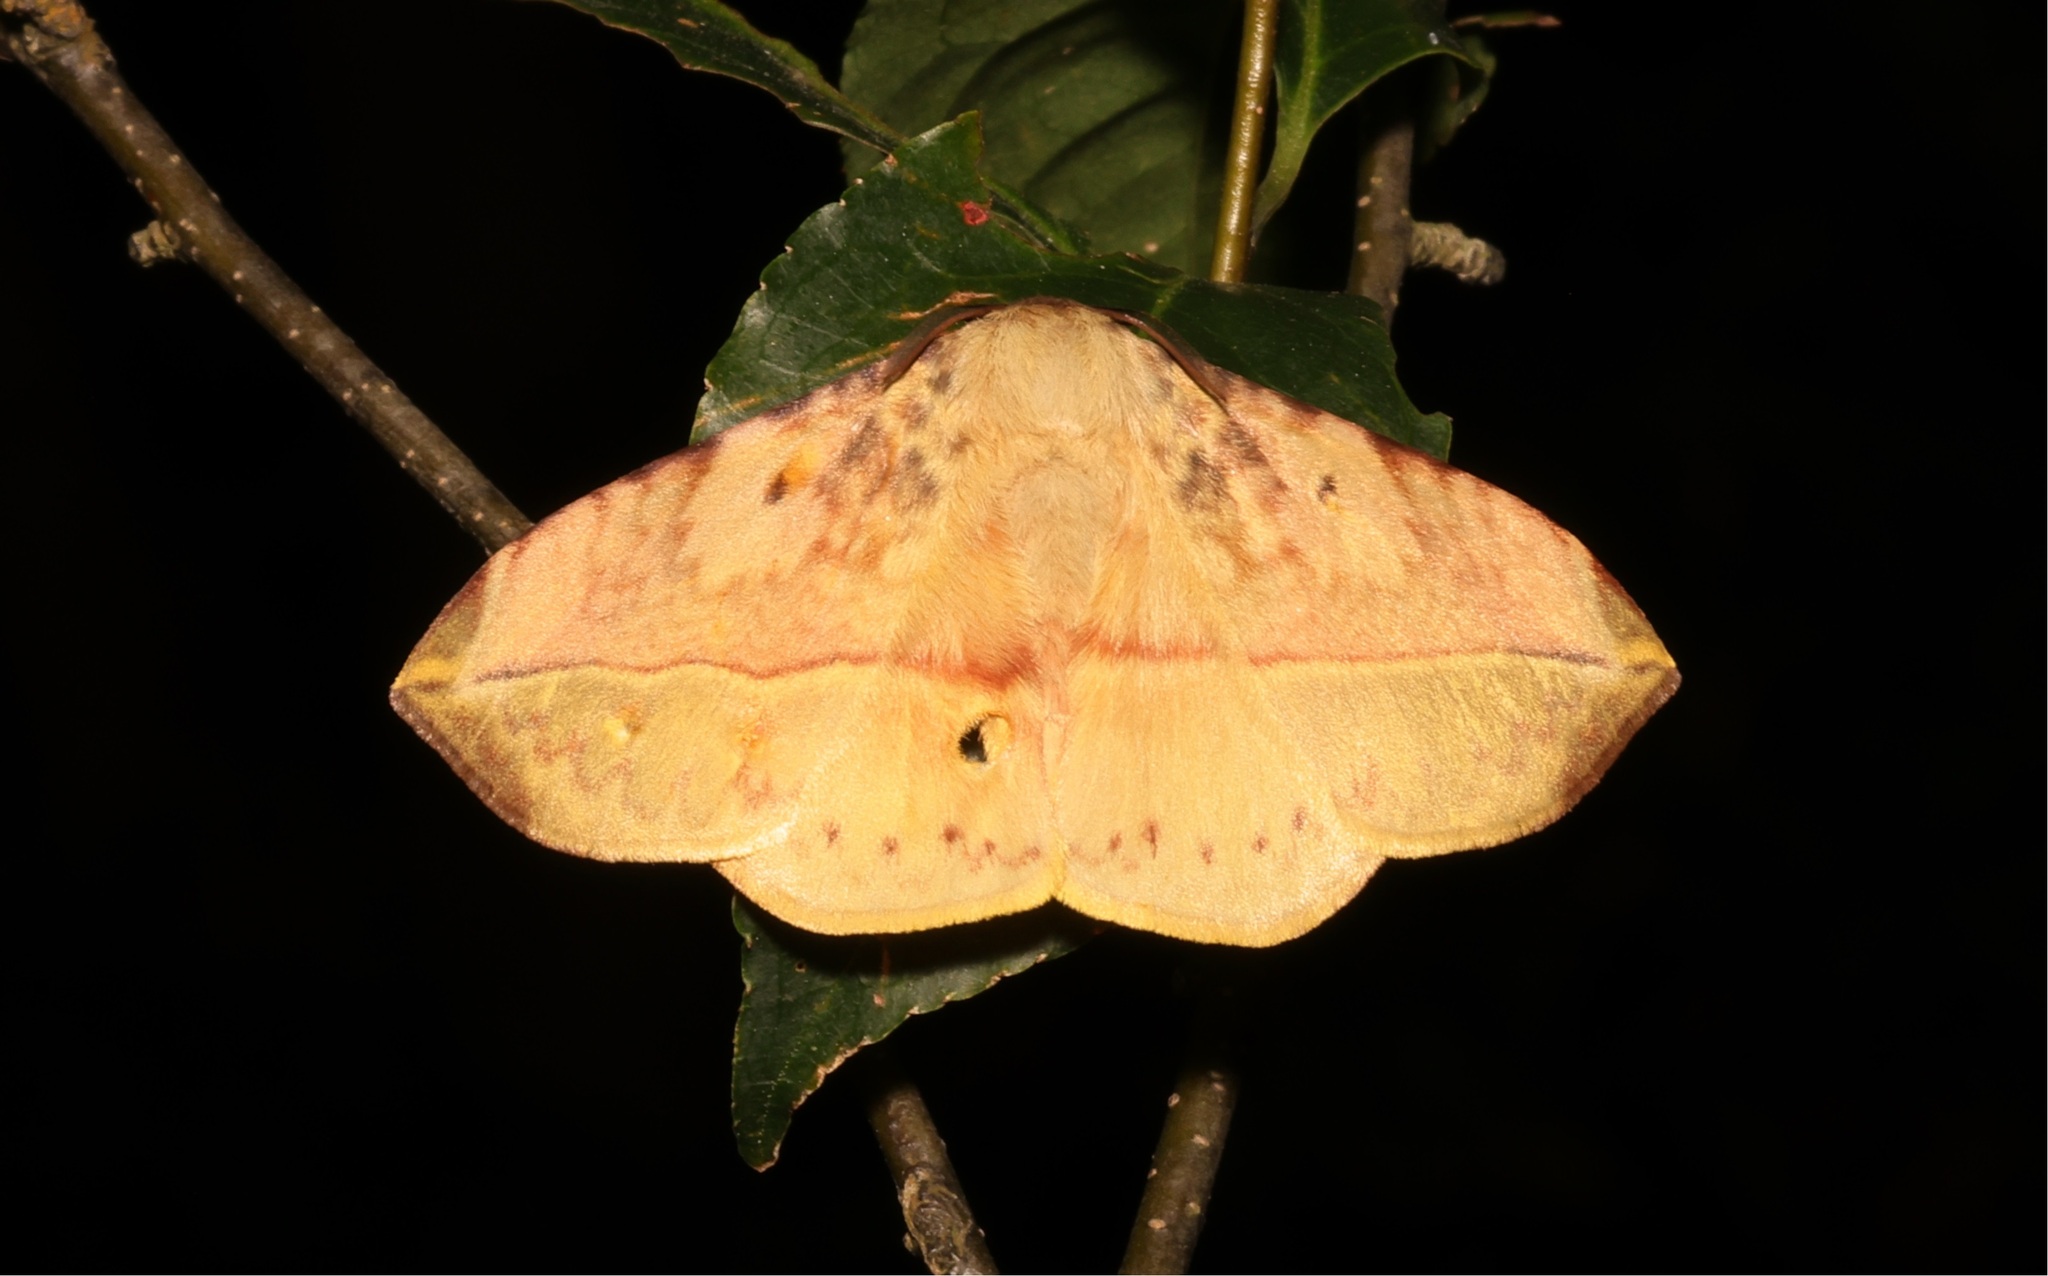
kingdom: Animalia
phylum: Arthropoda
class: Insecta
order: Lepidoptera
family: Eupterotidae
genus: Apha
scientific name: Apha kantonensis
